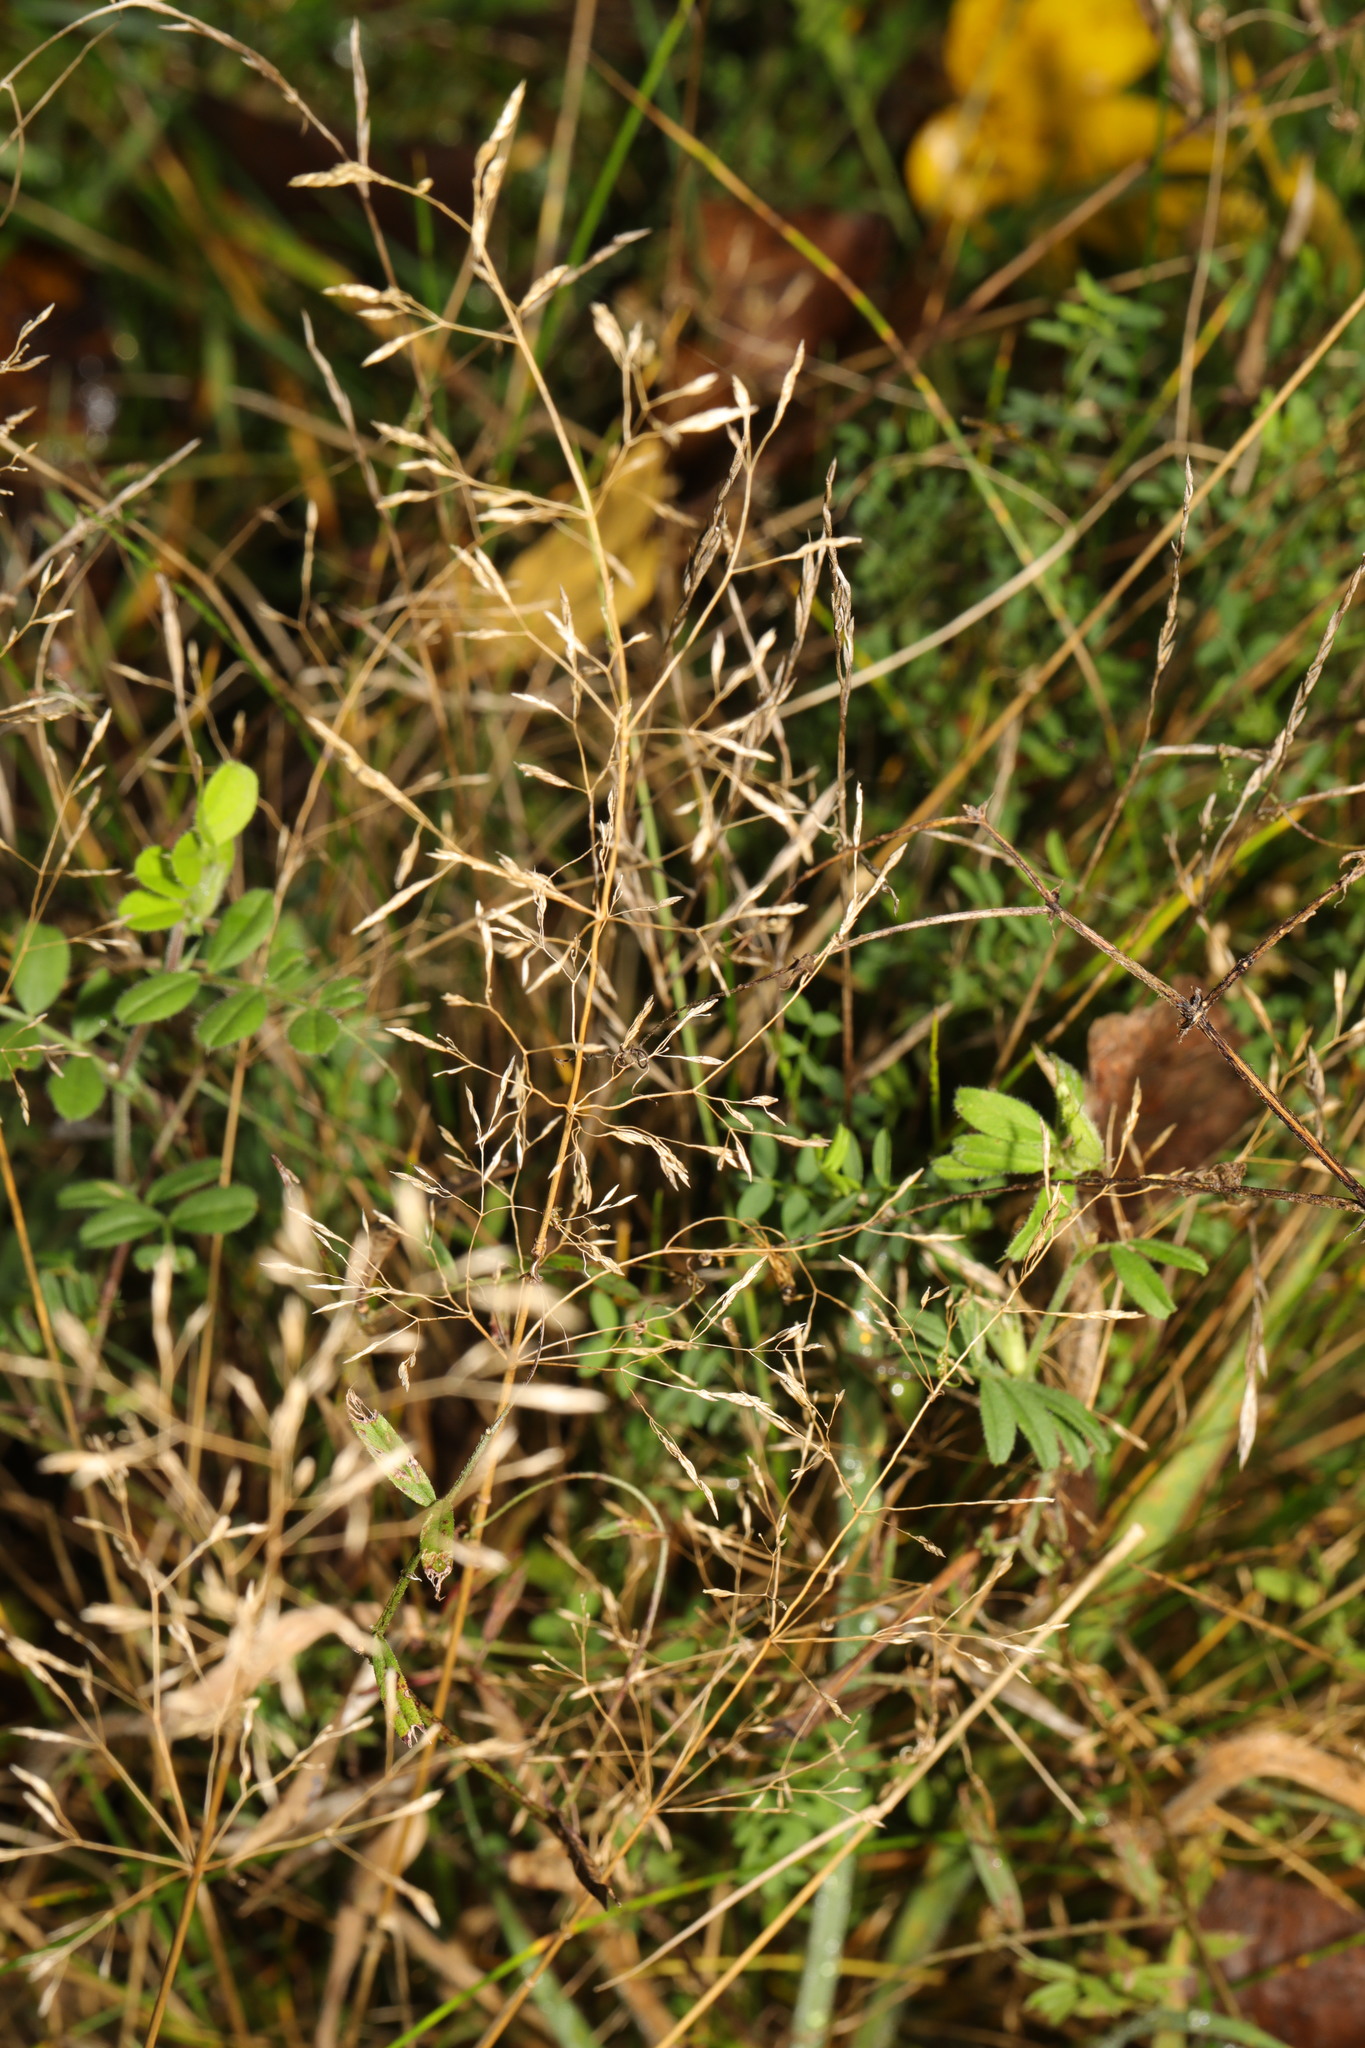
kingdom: Plantae
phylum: Tracheophyta
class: Liliopsida
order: Poales
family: Poaceae
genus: Agrostis
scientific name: Agrostis capillaris
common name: Colonial bentgrass
